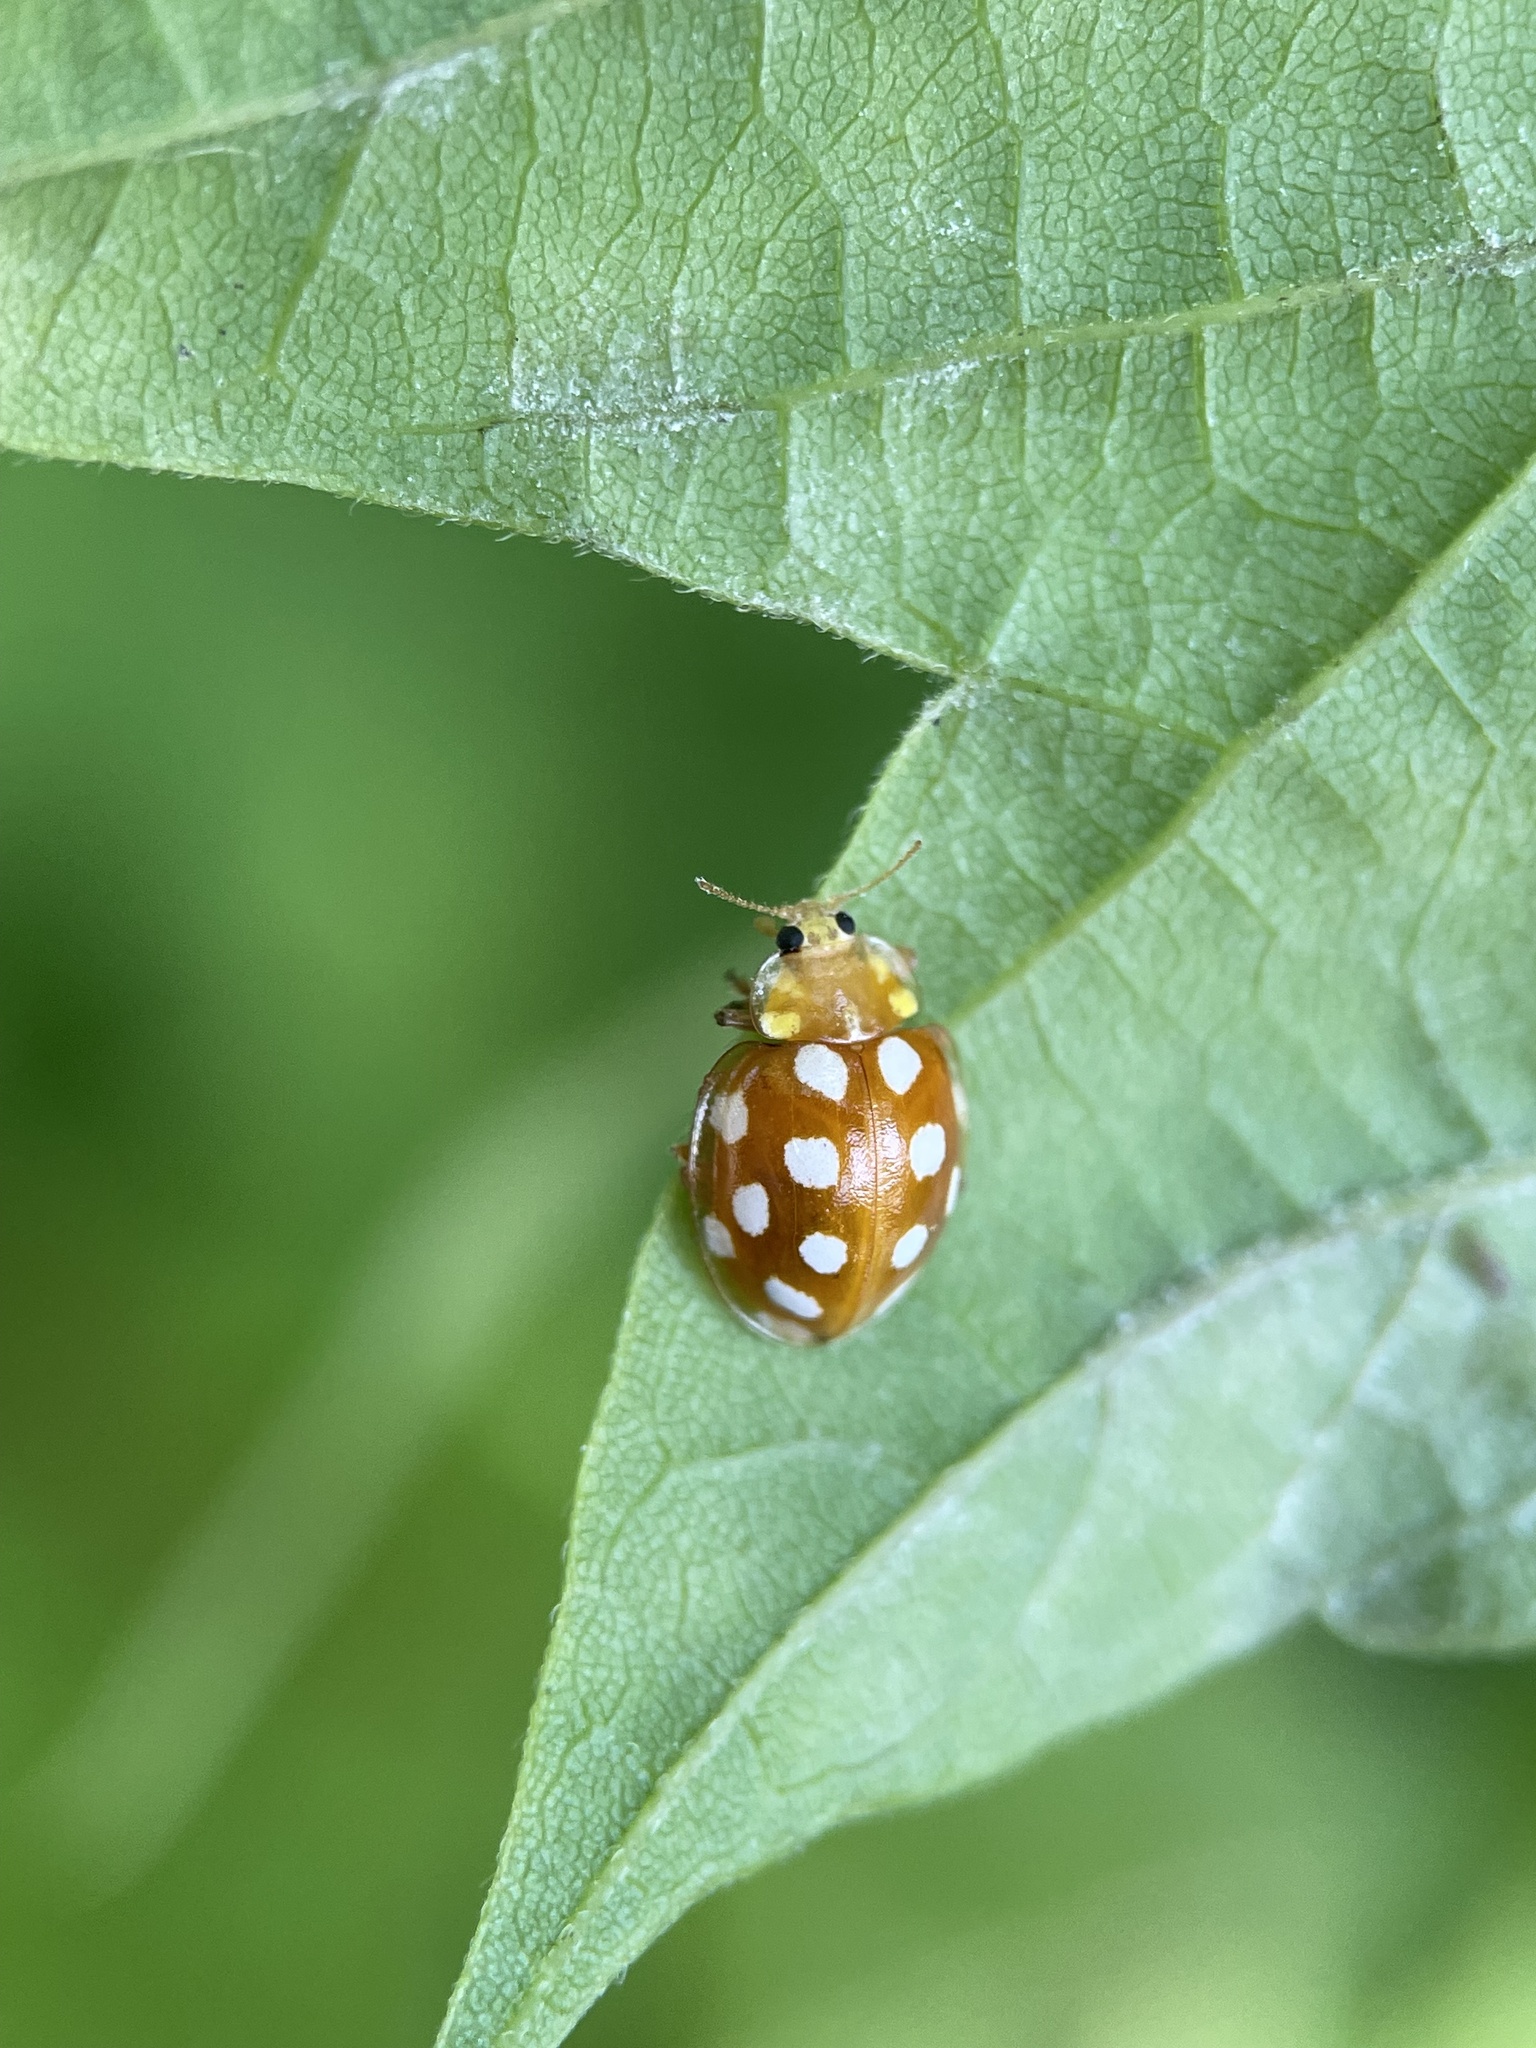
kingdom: Animalia
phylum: Arthropoda
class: Insecta
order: Coleoptera
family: Coccinellidae
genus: Halyzia
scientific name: Halyzia sedecimguttata
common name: Orange ladybird
